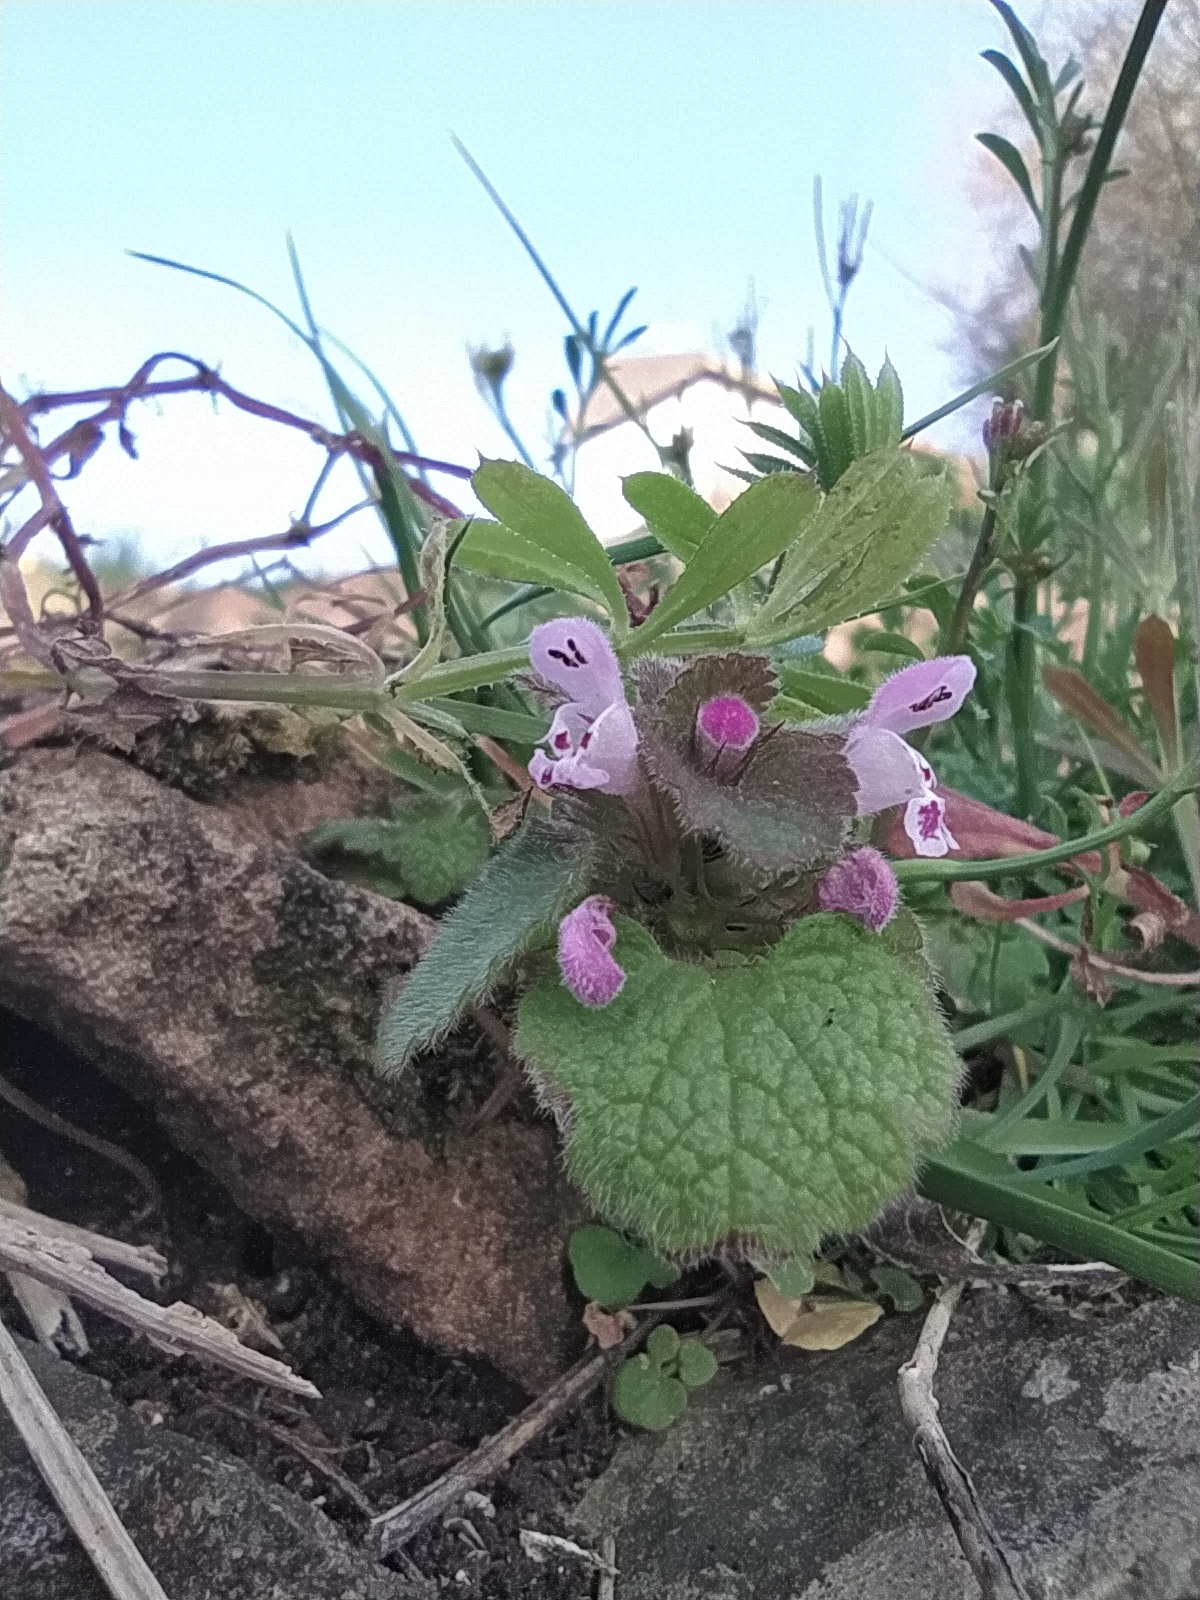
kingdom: Plantae
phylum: Tracheophyta
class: Magnoliopsida
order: Lamiales
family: Lamiaceae
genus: Lamium
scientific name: Lamium purpureum
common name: Red dead-nettle
